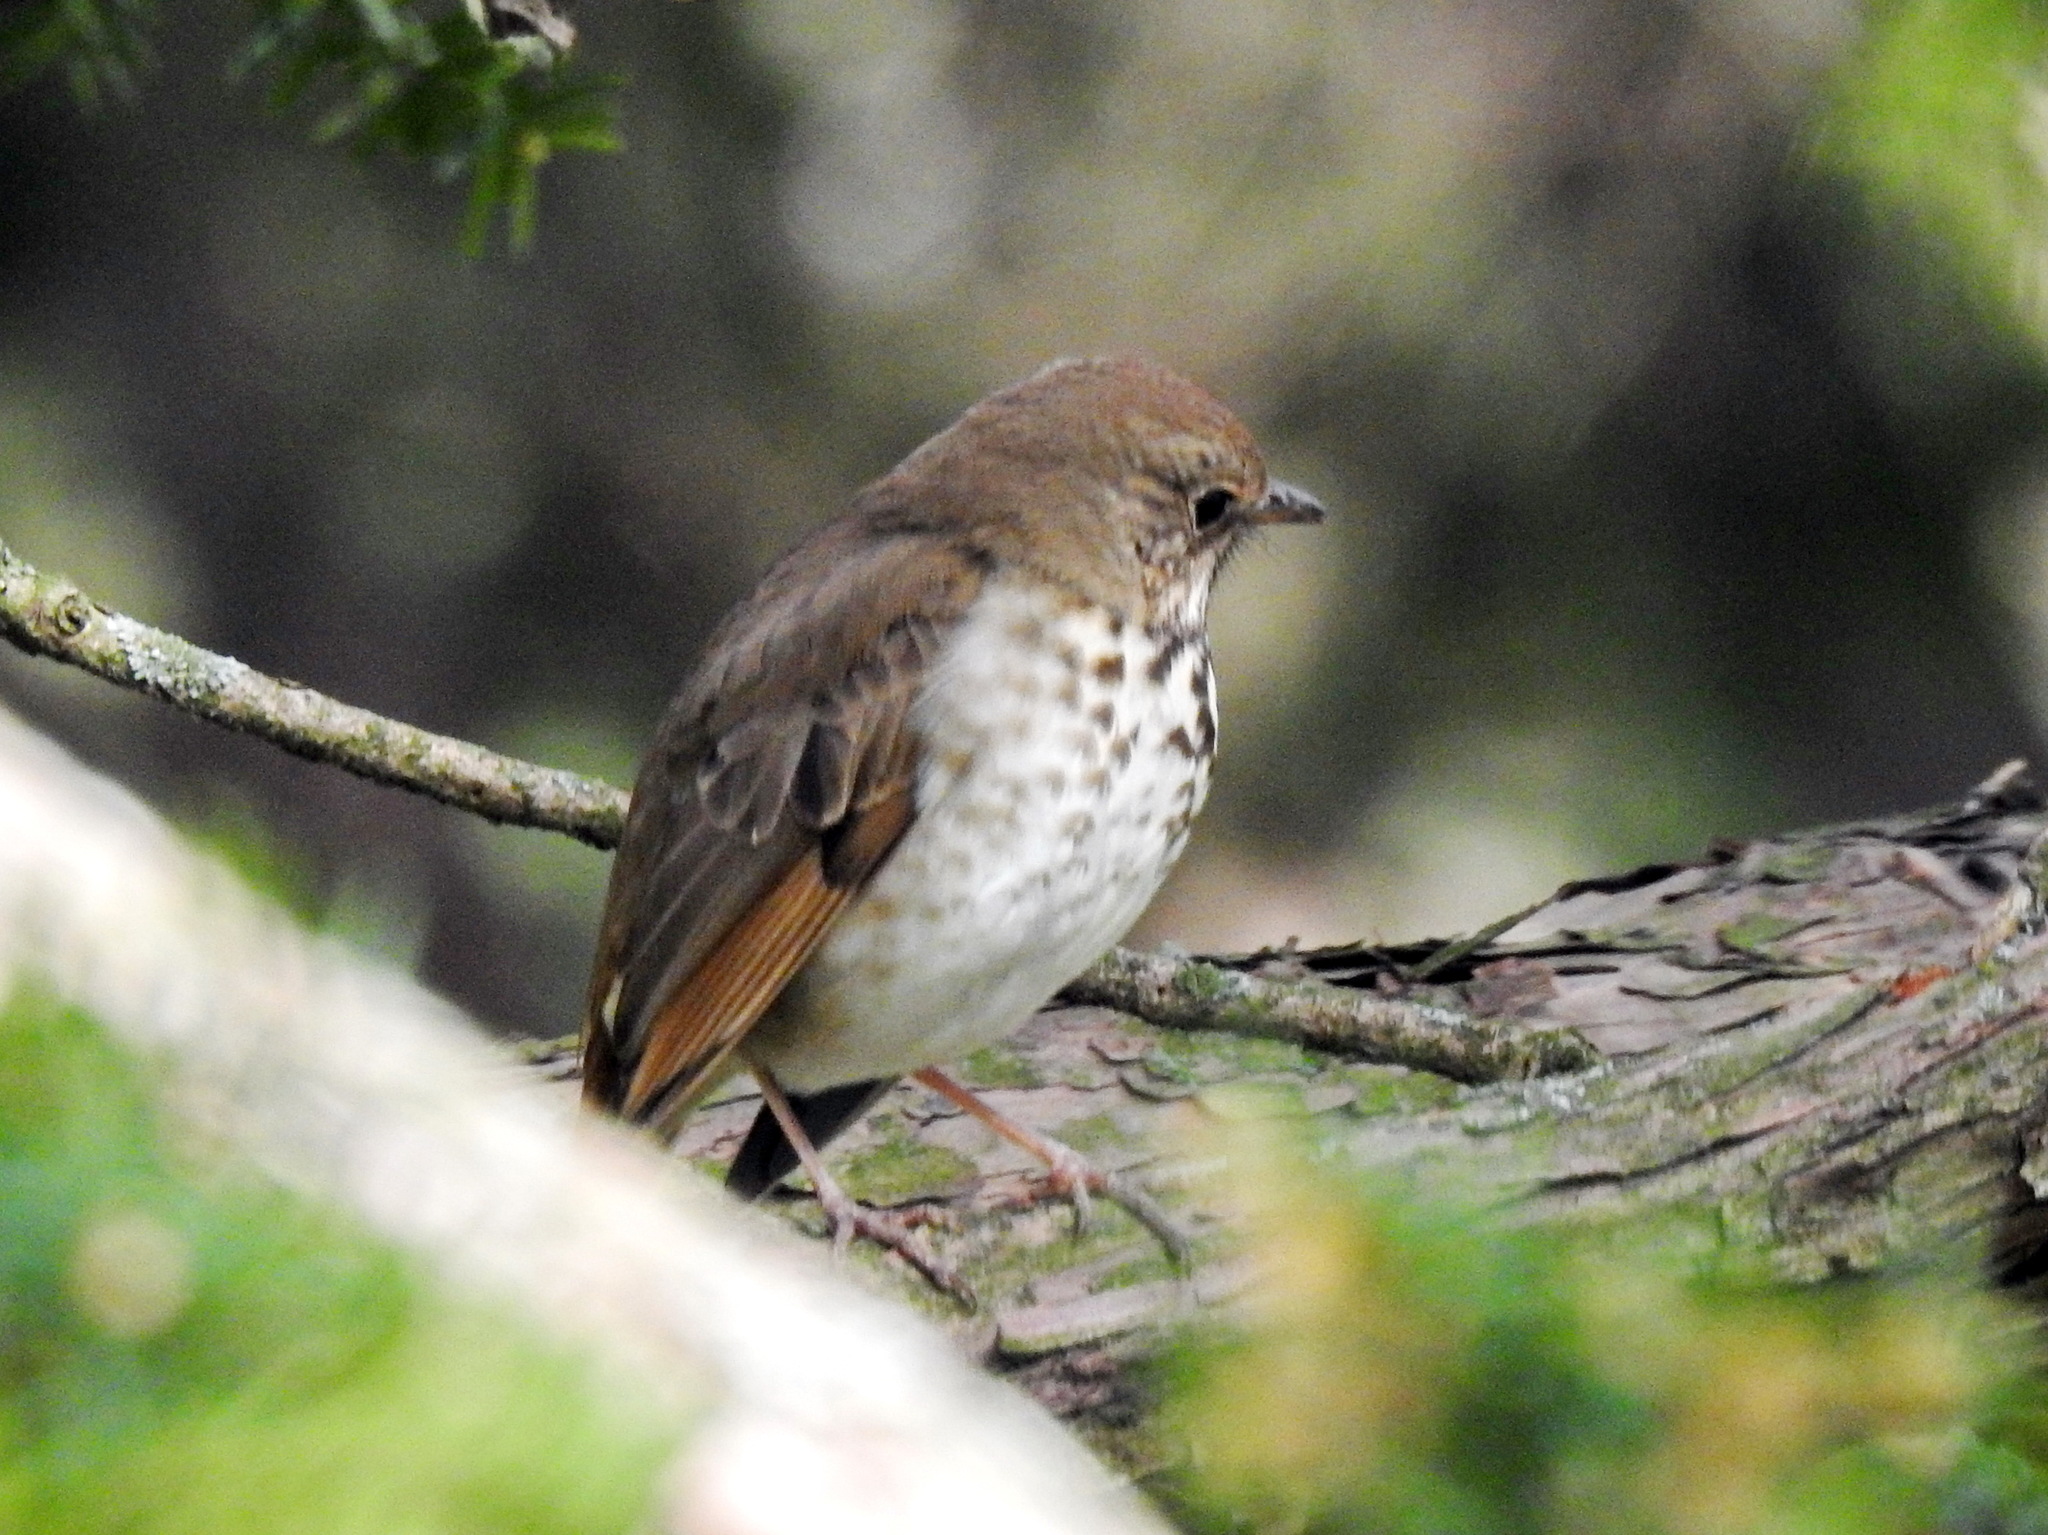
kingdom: Animalia
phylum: Chordata
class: Aves
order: Passeriformes
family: Turdidae
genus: Catharus
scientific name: Catharus guttatus
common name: Hermit thrush
